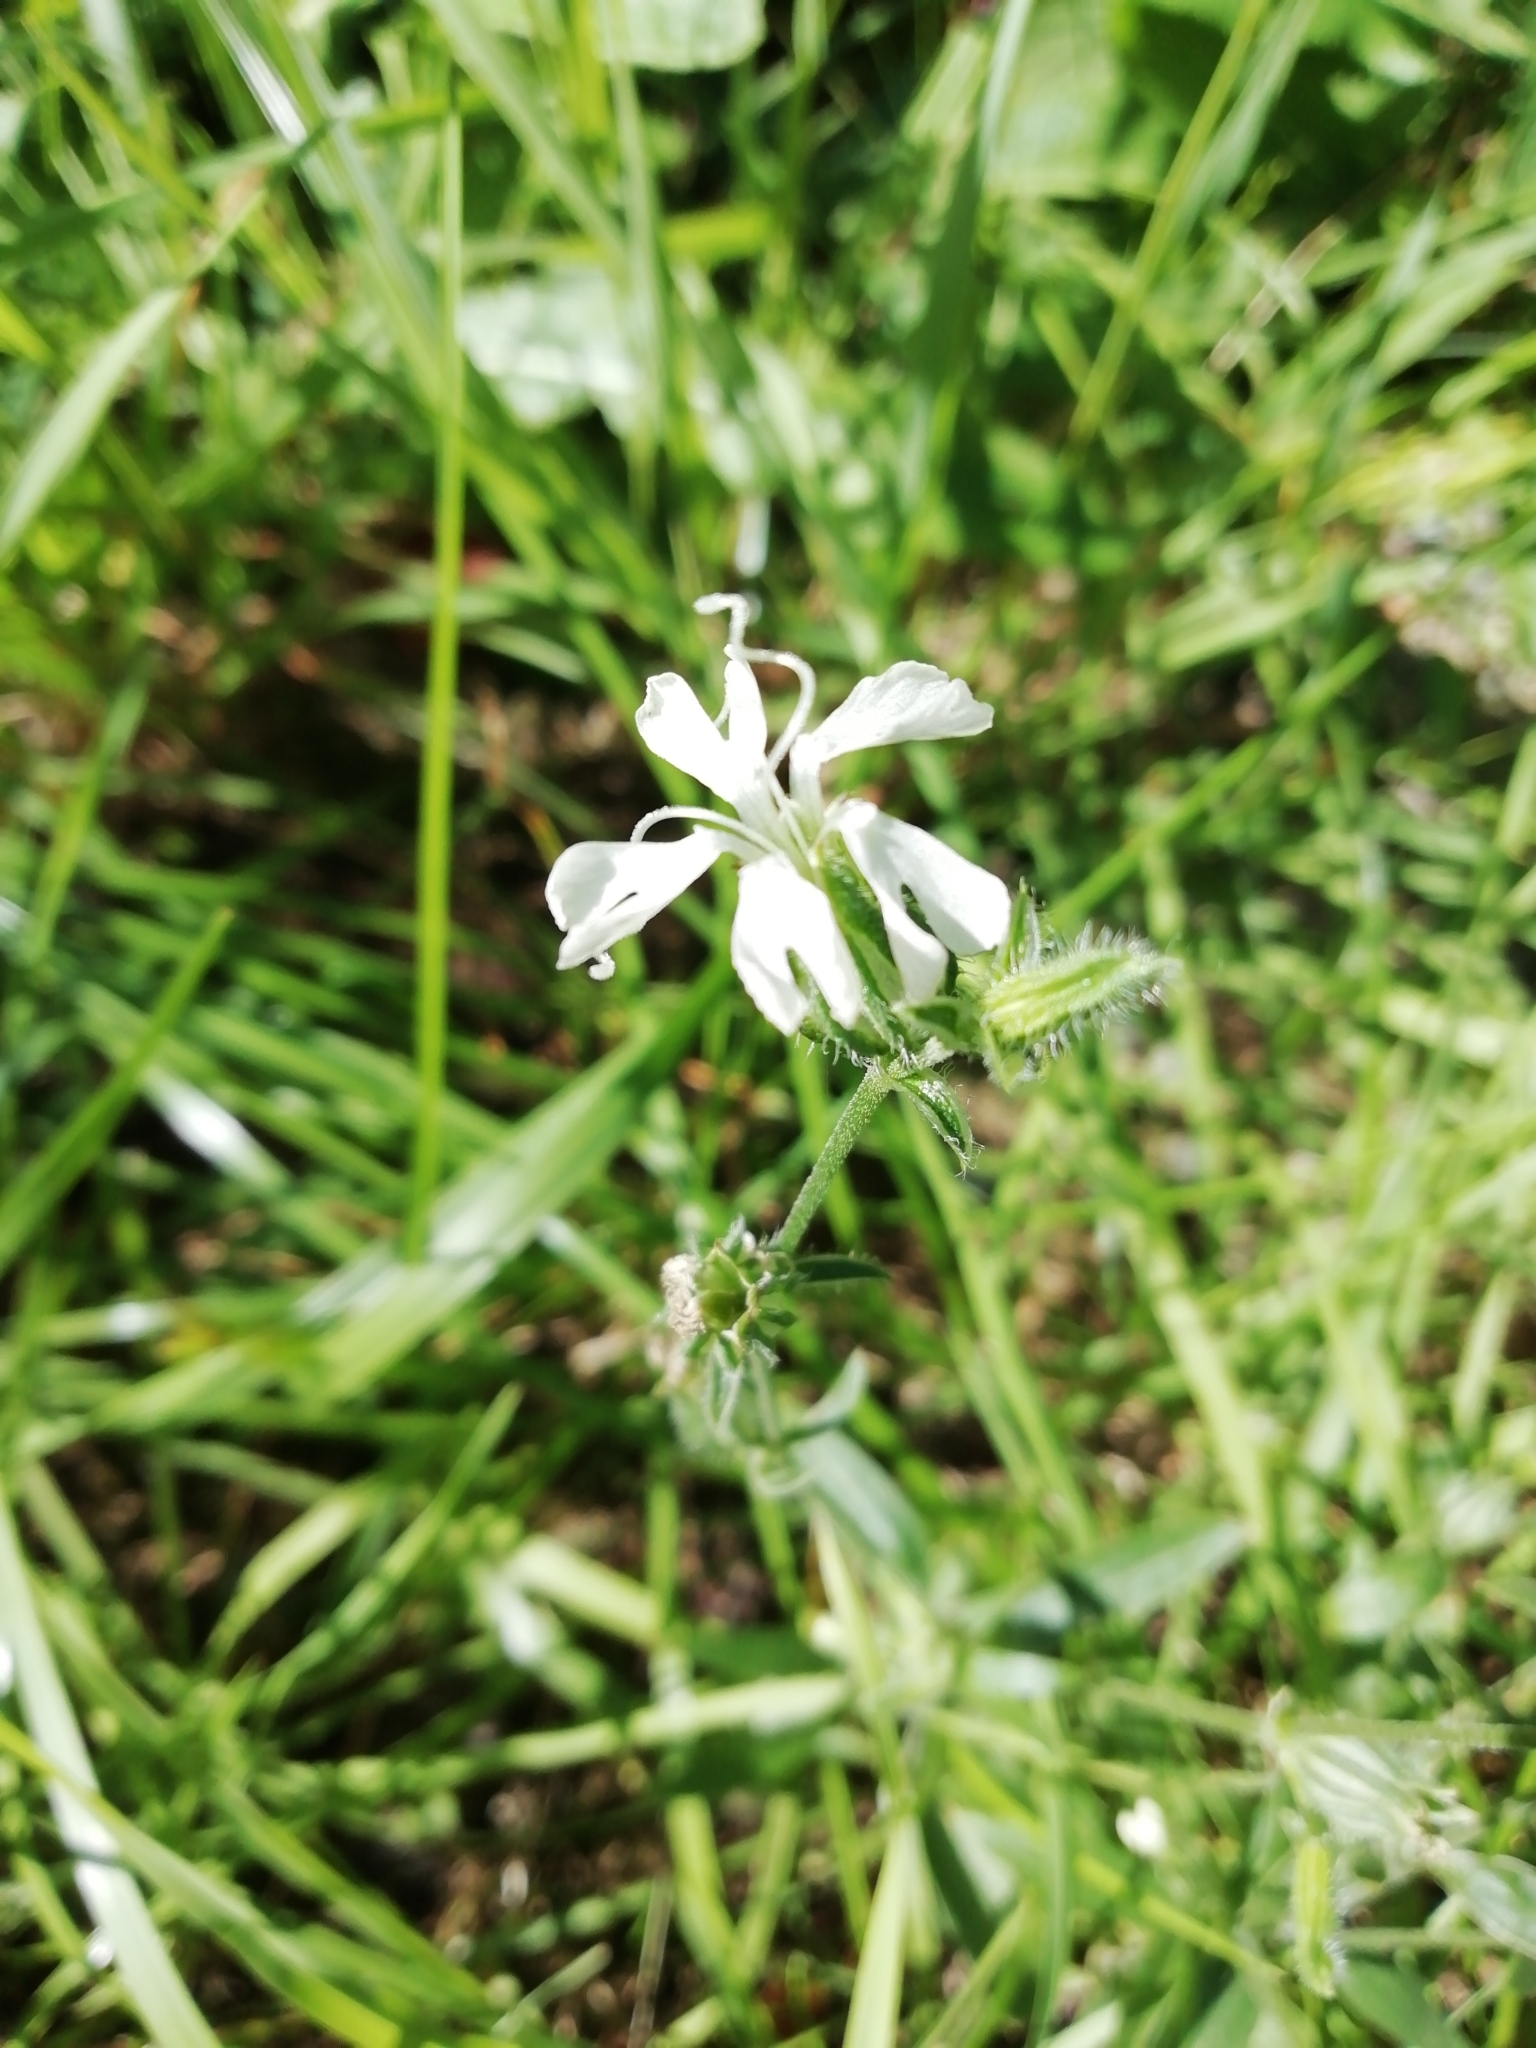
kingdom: Plantae
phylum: Tracheophyta
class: Magnoliopsida
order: Caryophyllales
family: Caryophyllaceae
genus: Silene
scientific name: Silene latifolia
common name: White campion
